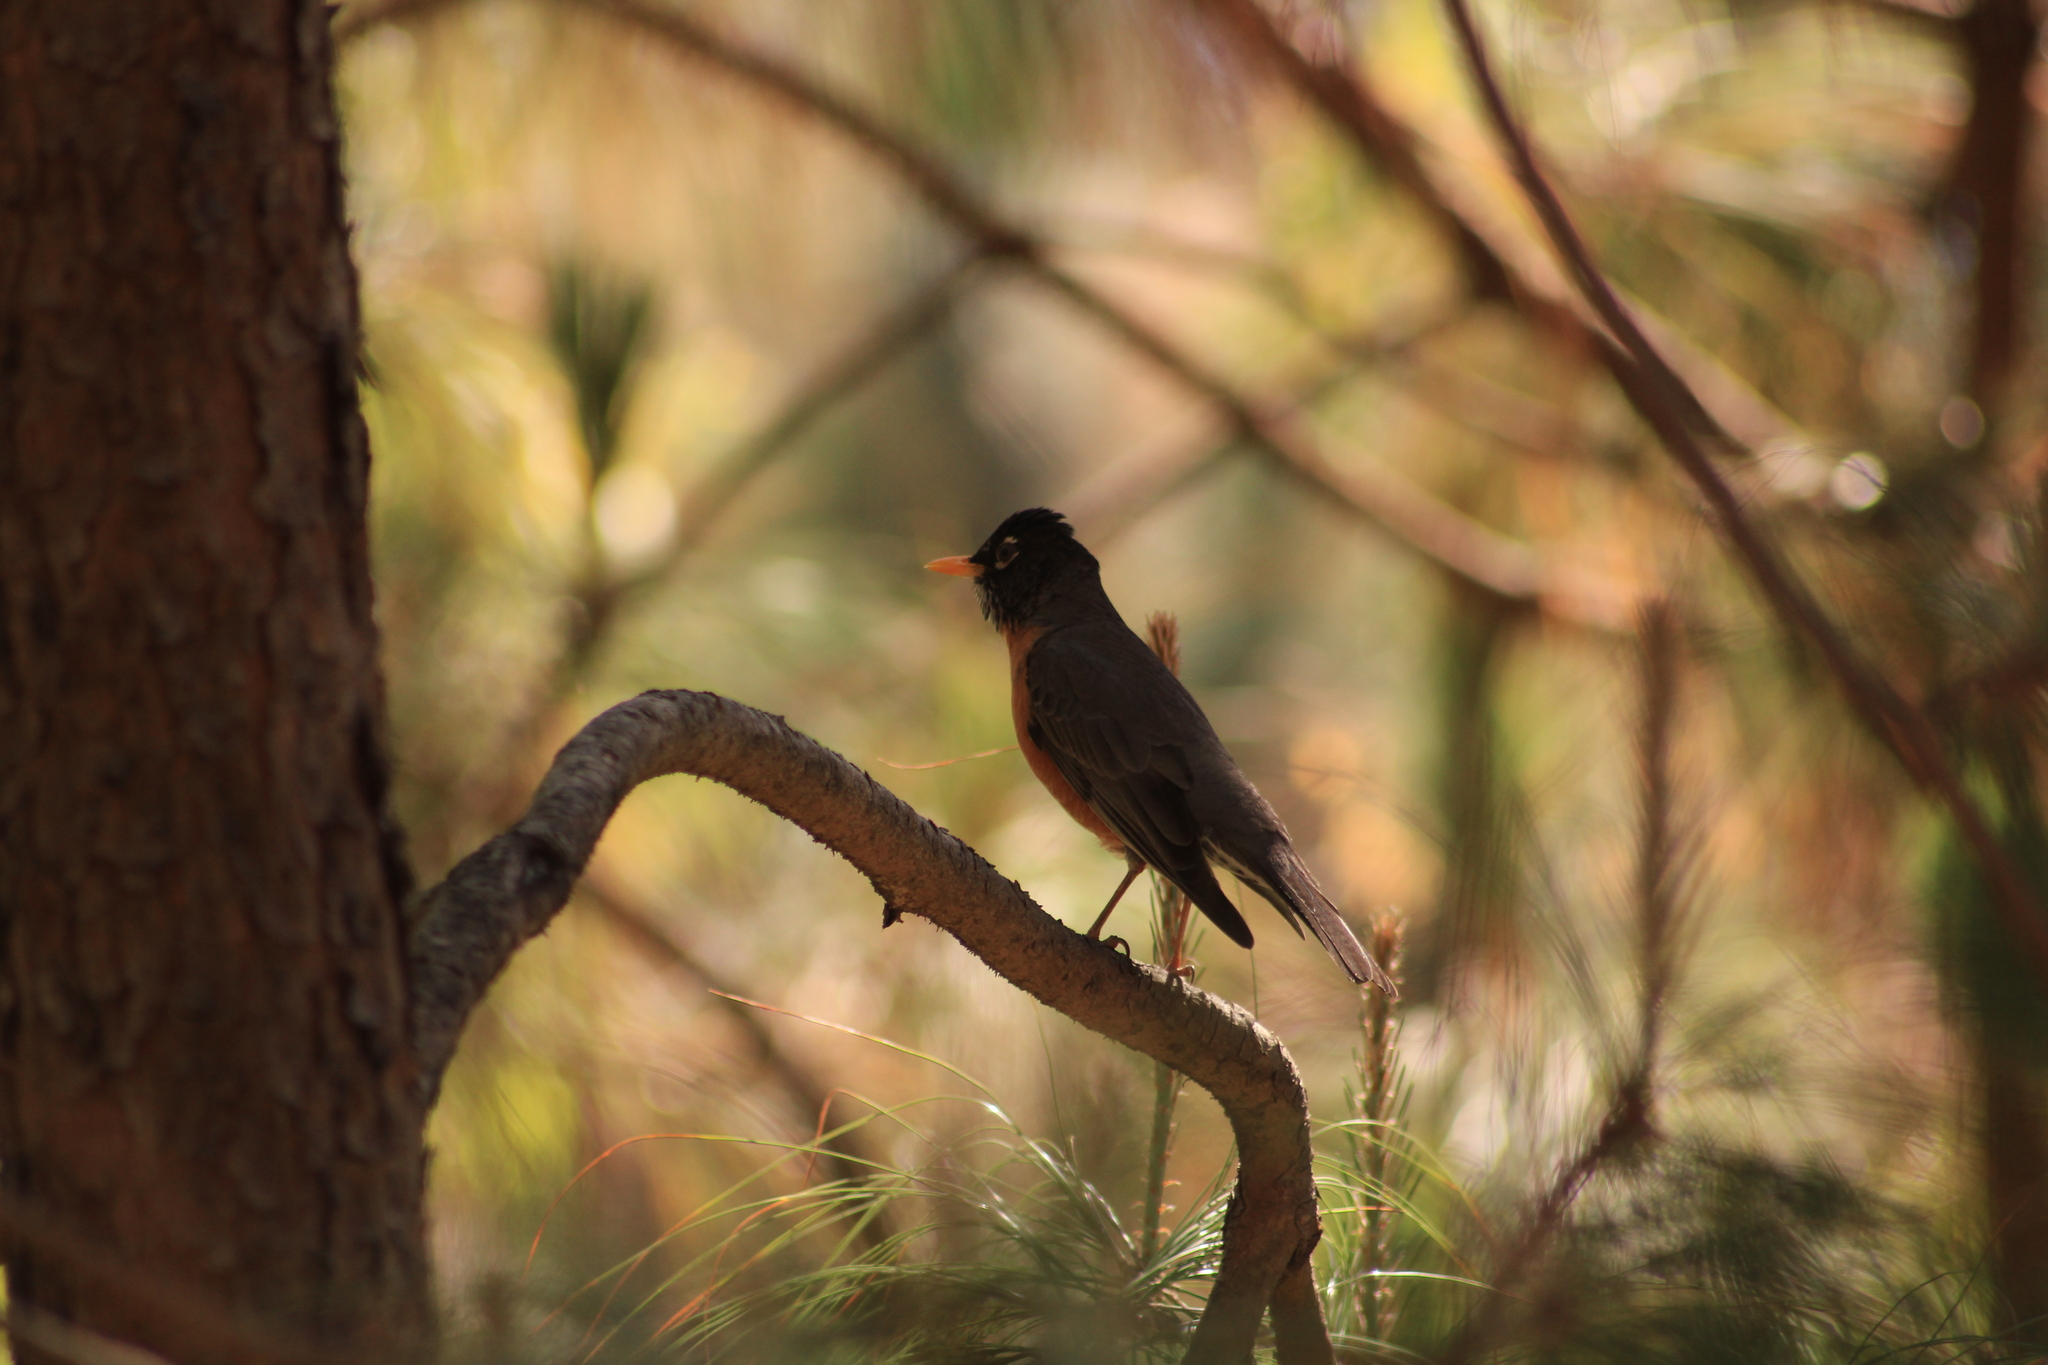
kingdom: Animalia
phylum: Chordata
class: Aves
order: Passeriformes
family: Turdidae
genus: Turdus
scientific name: Turdus migratorius
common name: American robin
